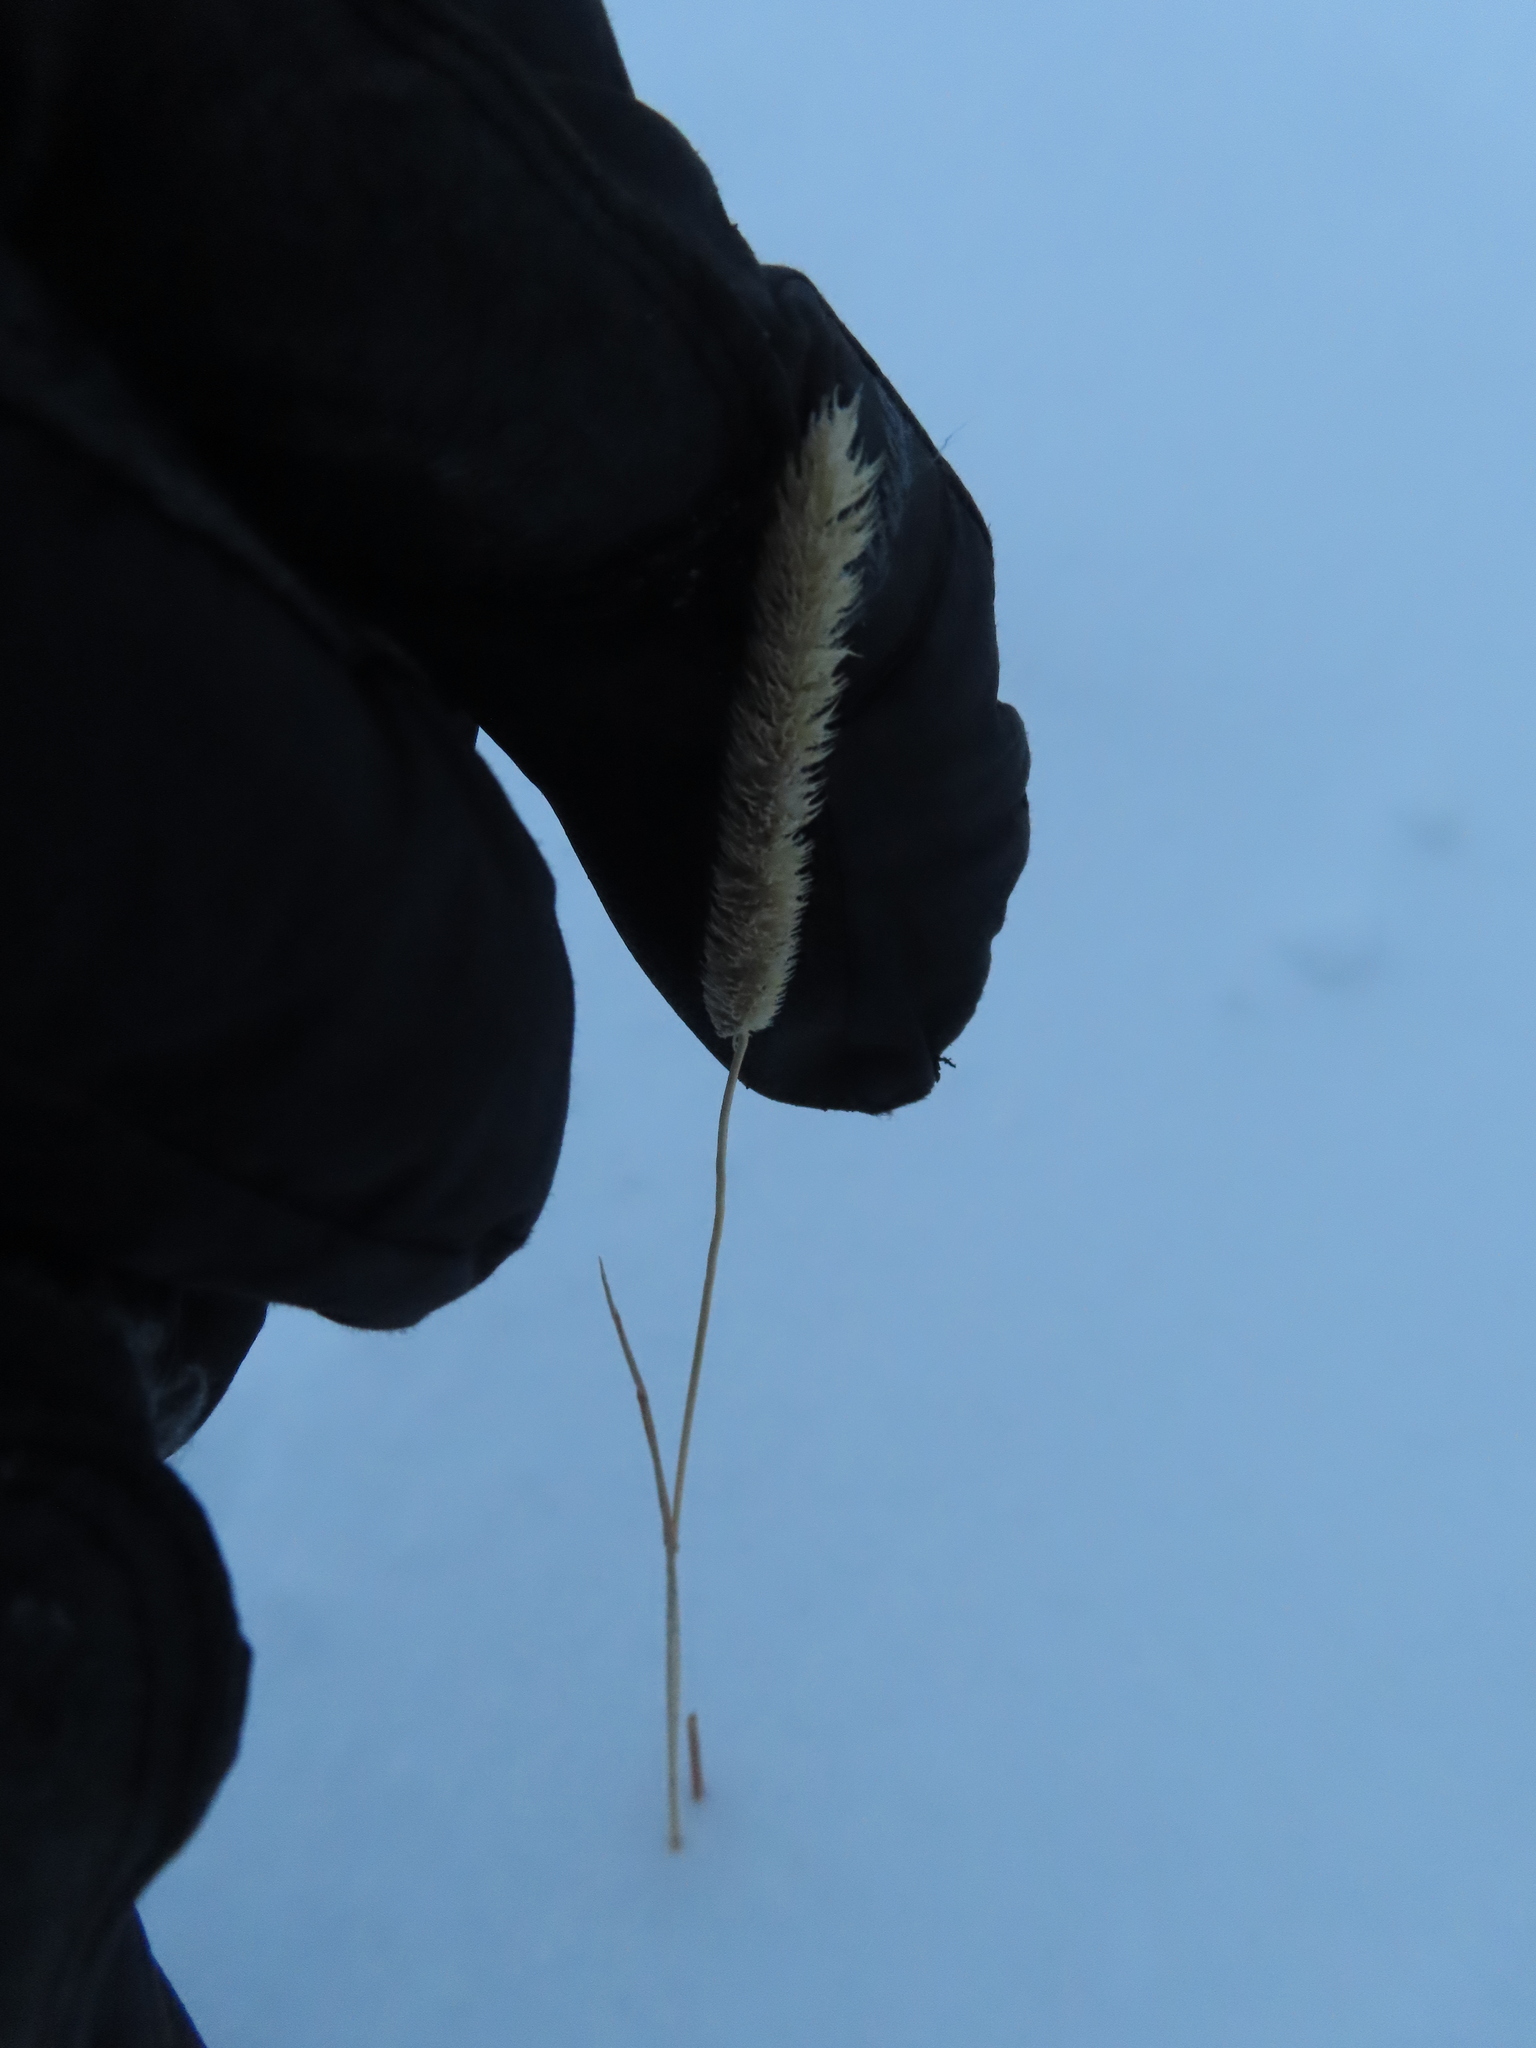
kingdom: Plantae
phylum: Tracheophyta
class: Liliopsida
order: Poales
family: Poaceae
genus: Phleum
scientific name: Phleum pratense
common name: Timothy grass
